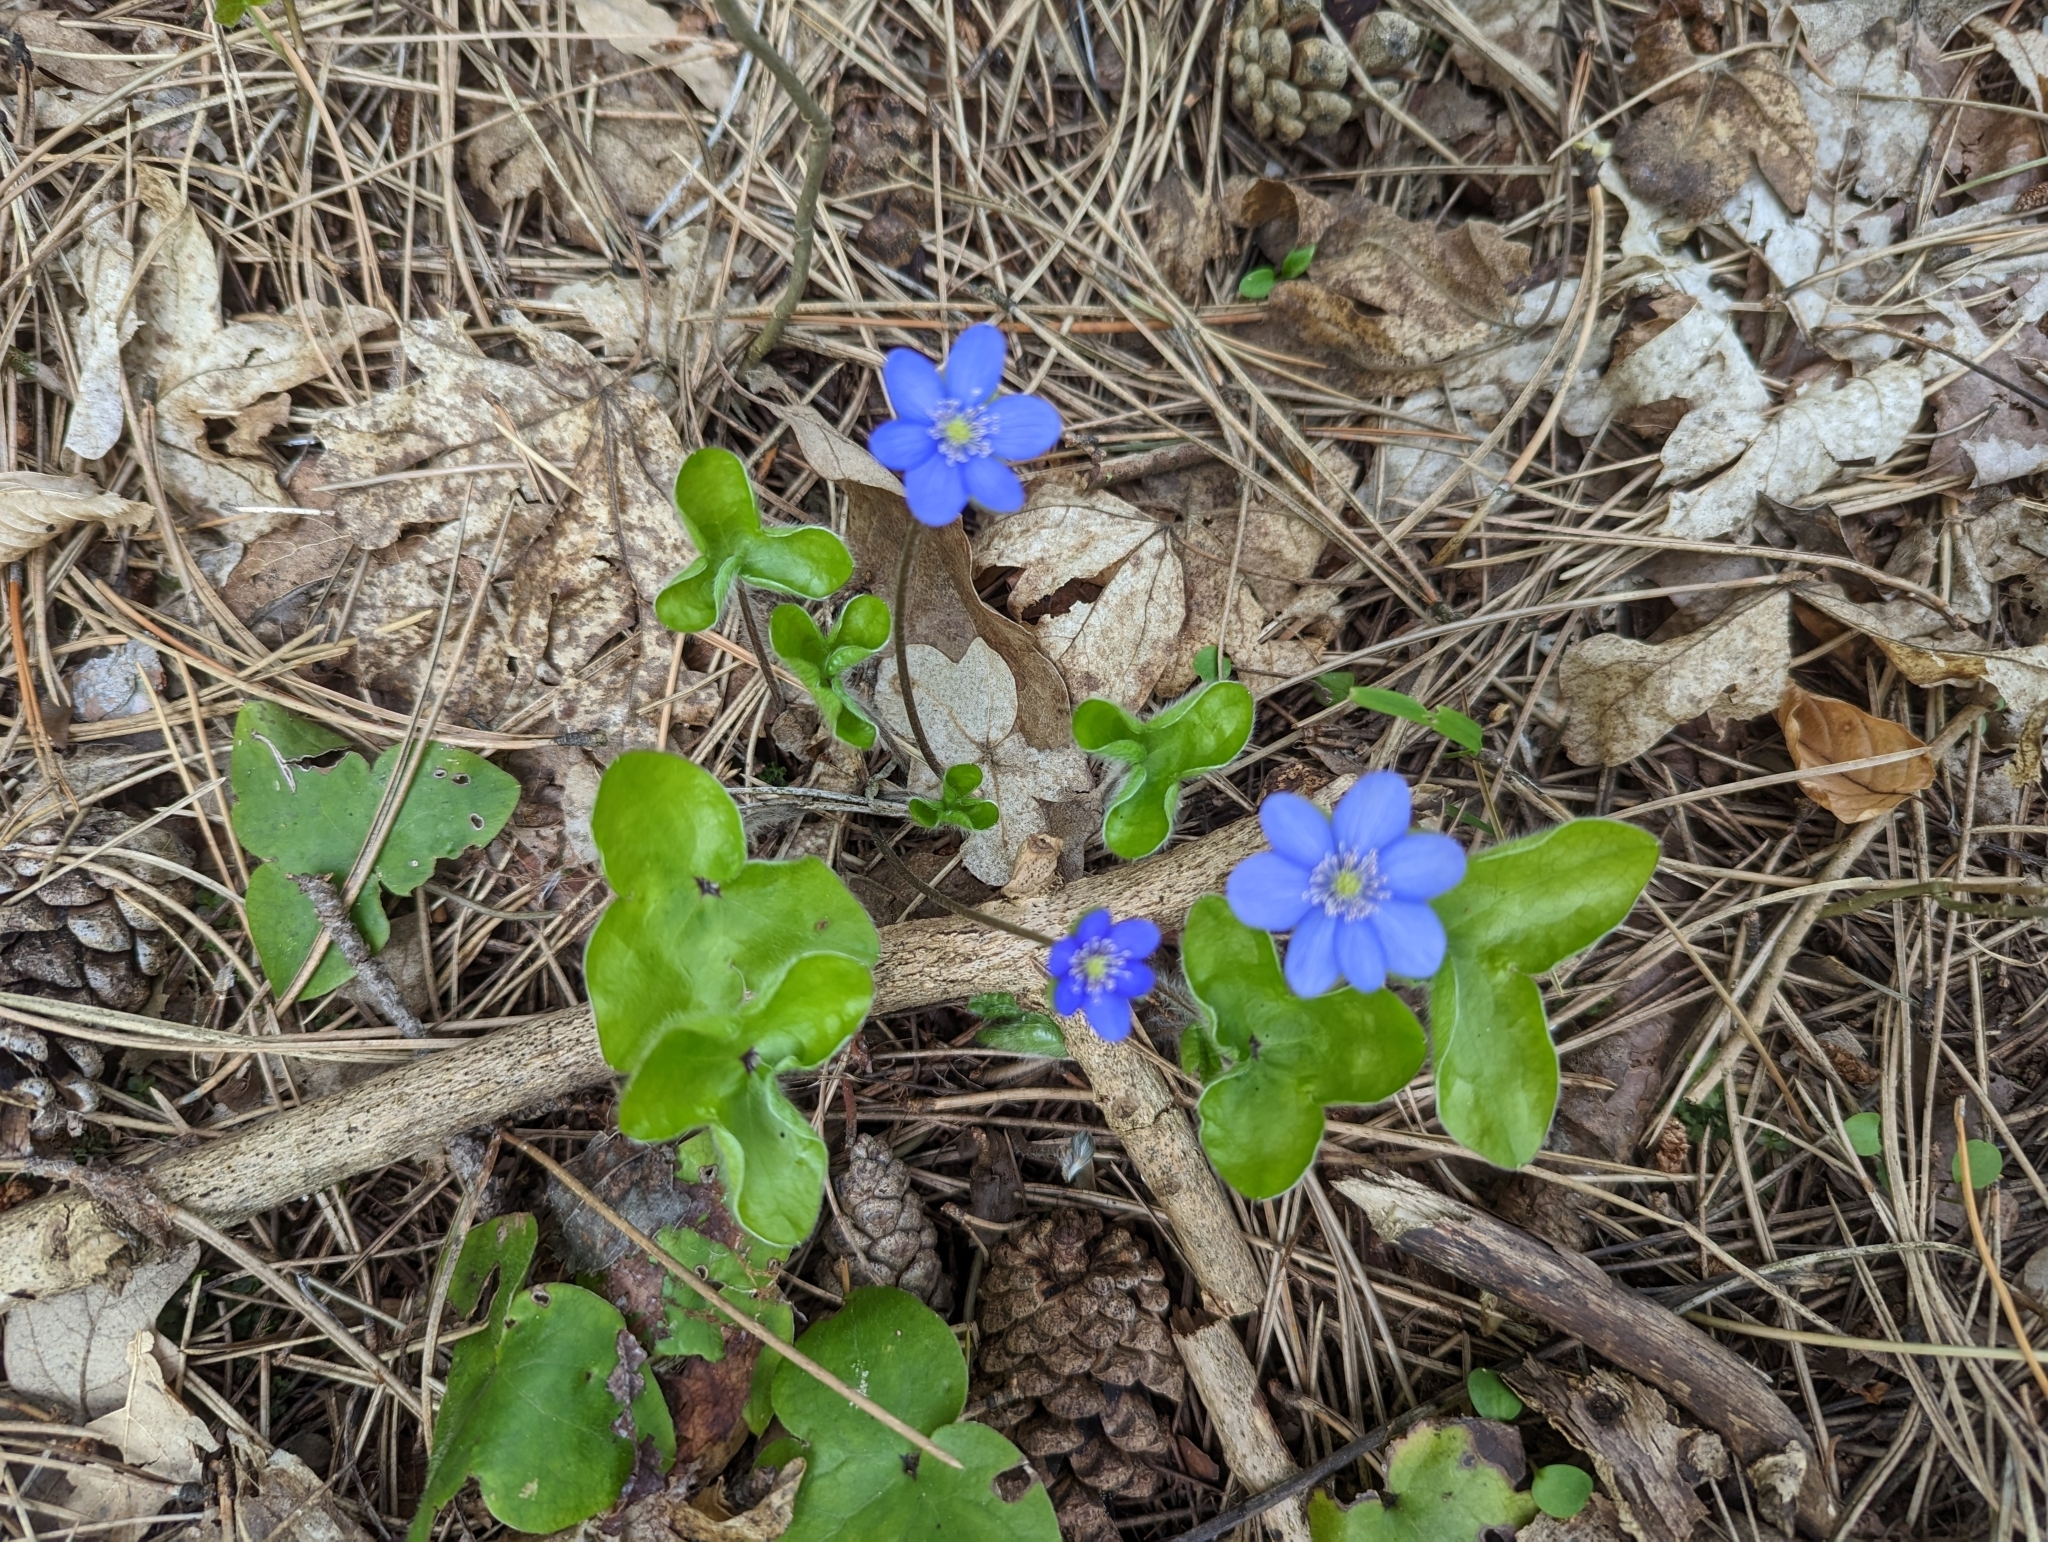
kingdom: Plantae
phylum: Tracheophyta
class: Magnoliopsida
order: Ranunculales
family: Ranunculaceae
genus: Hepatica
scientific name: Hepatica nobilis
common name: Liverleaf
